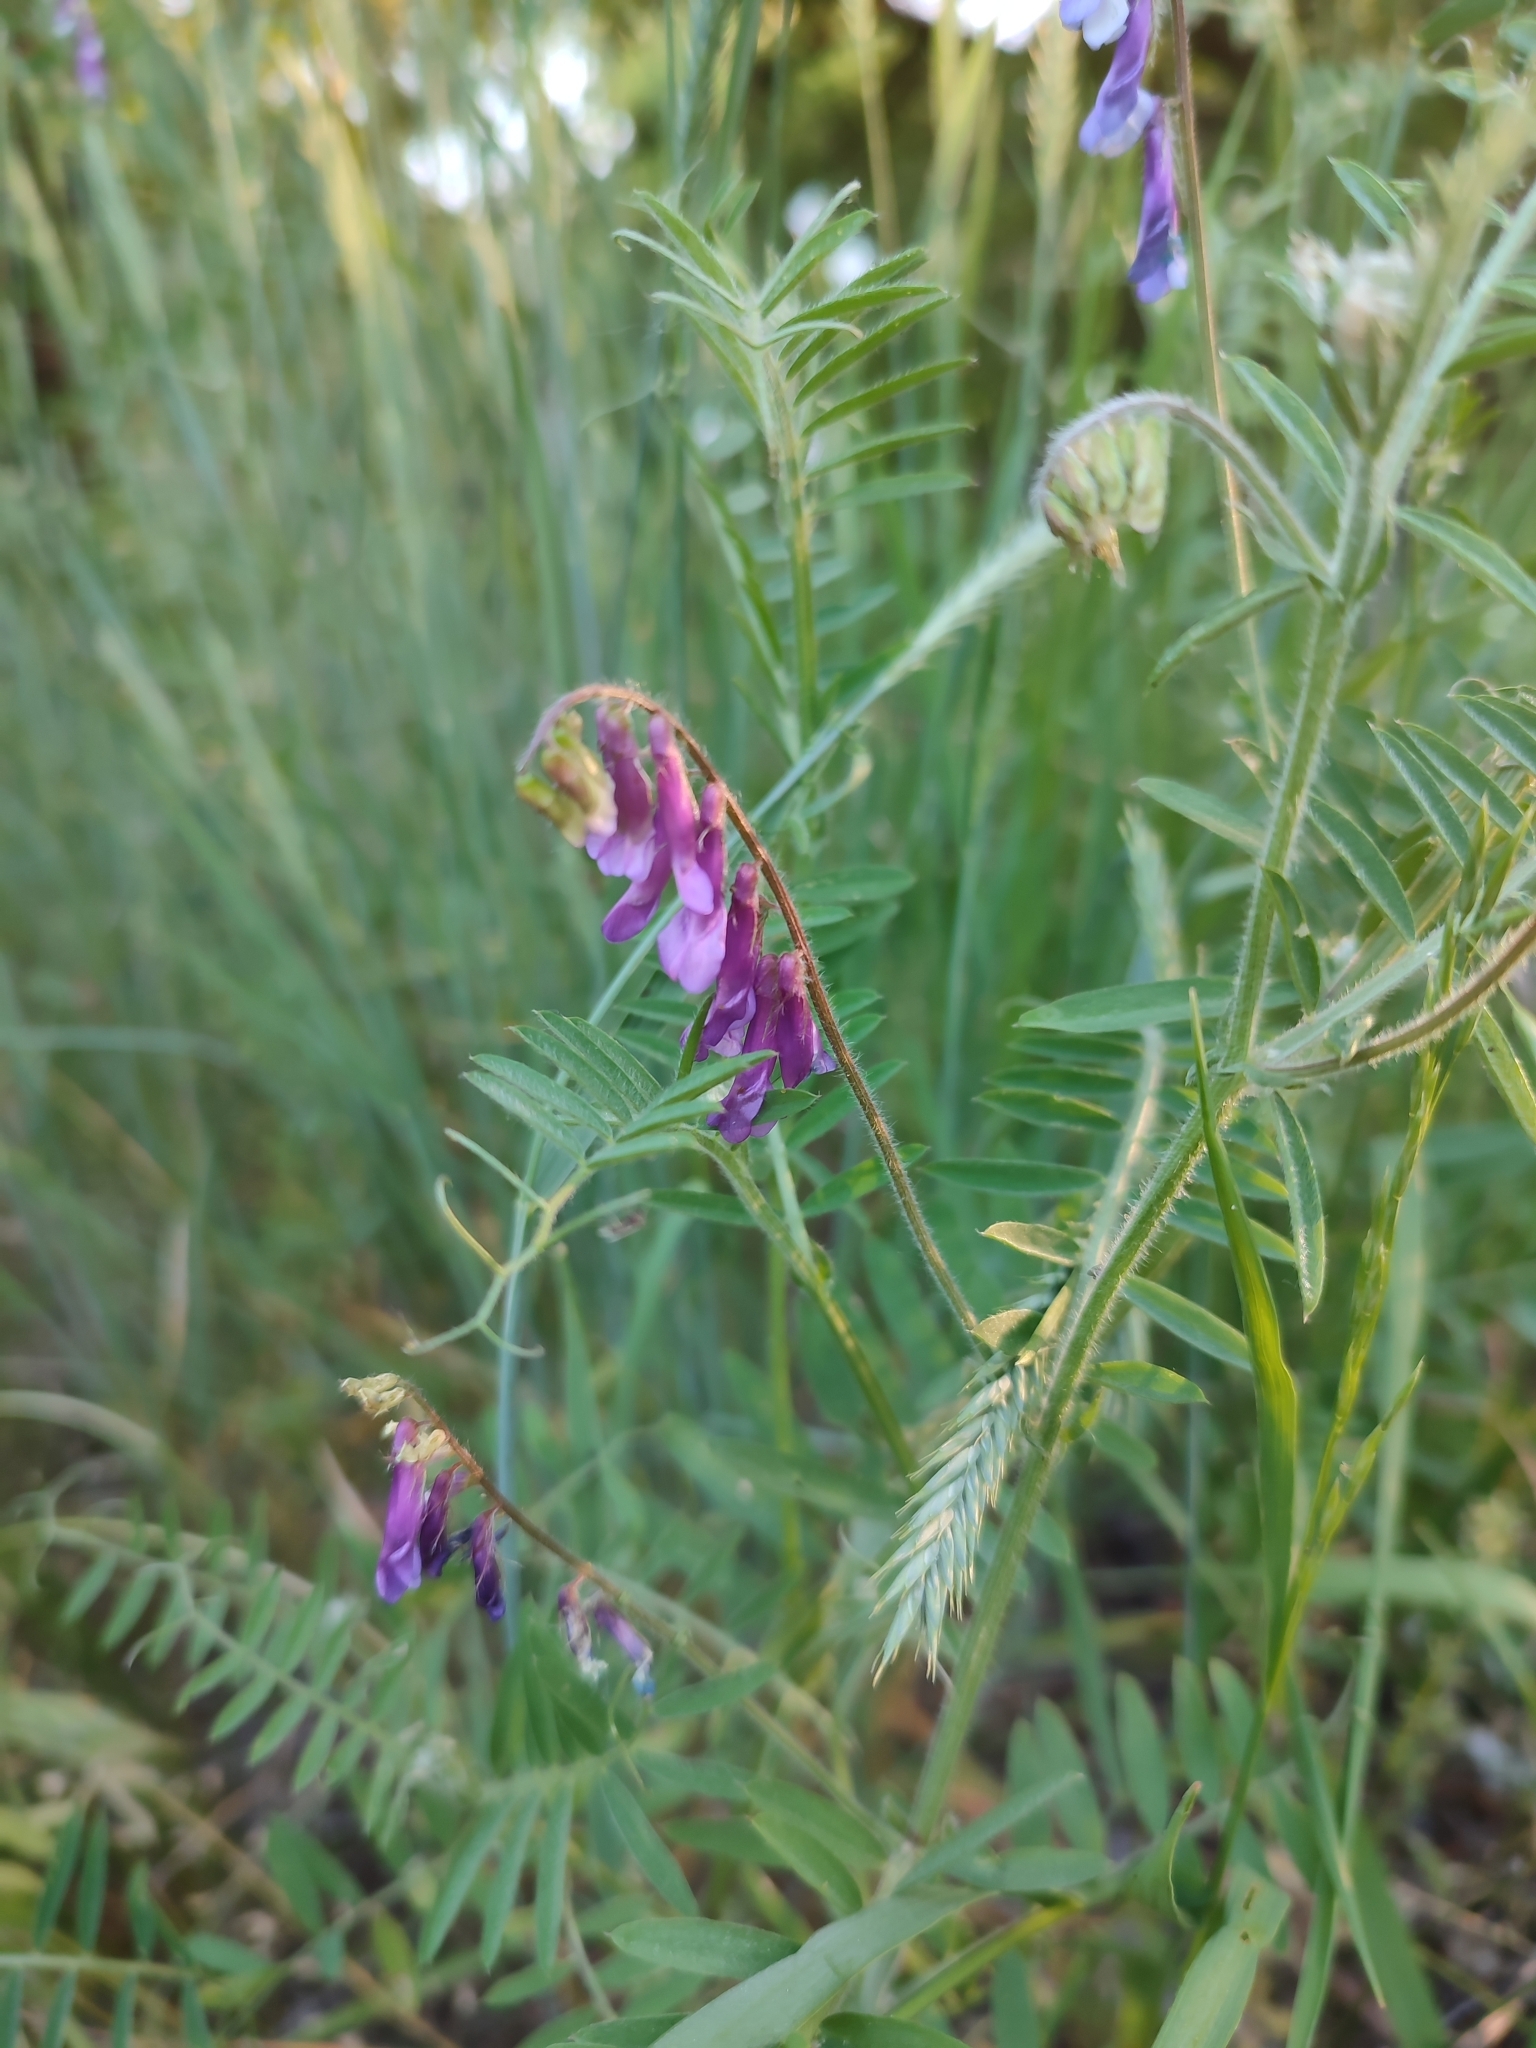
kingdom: Plantae
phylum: Tracheophyta
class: Magnoliopsida
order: Fabales
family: Fabaceae
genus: Vicia
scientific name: Vicia villosa
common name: Fodder vetch
